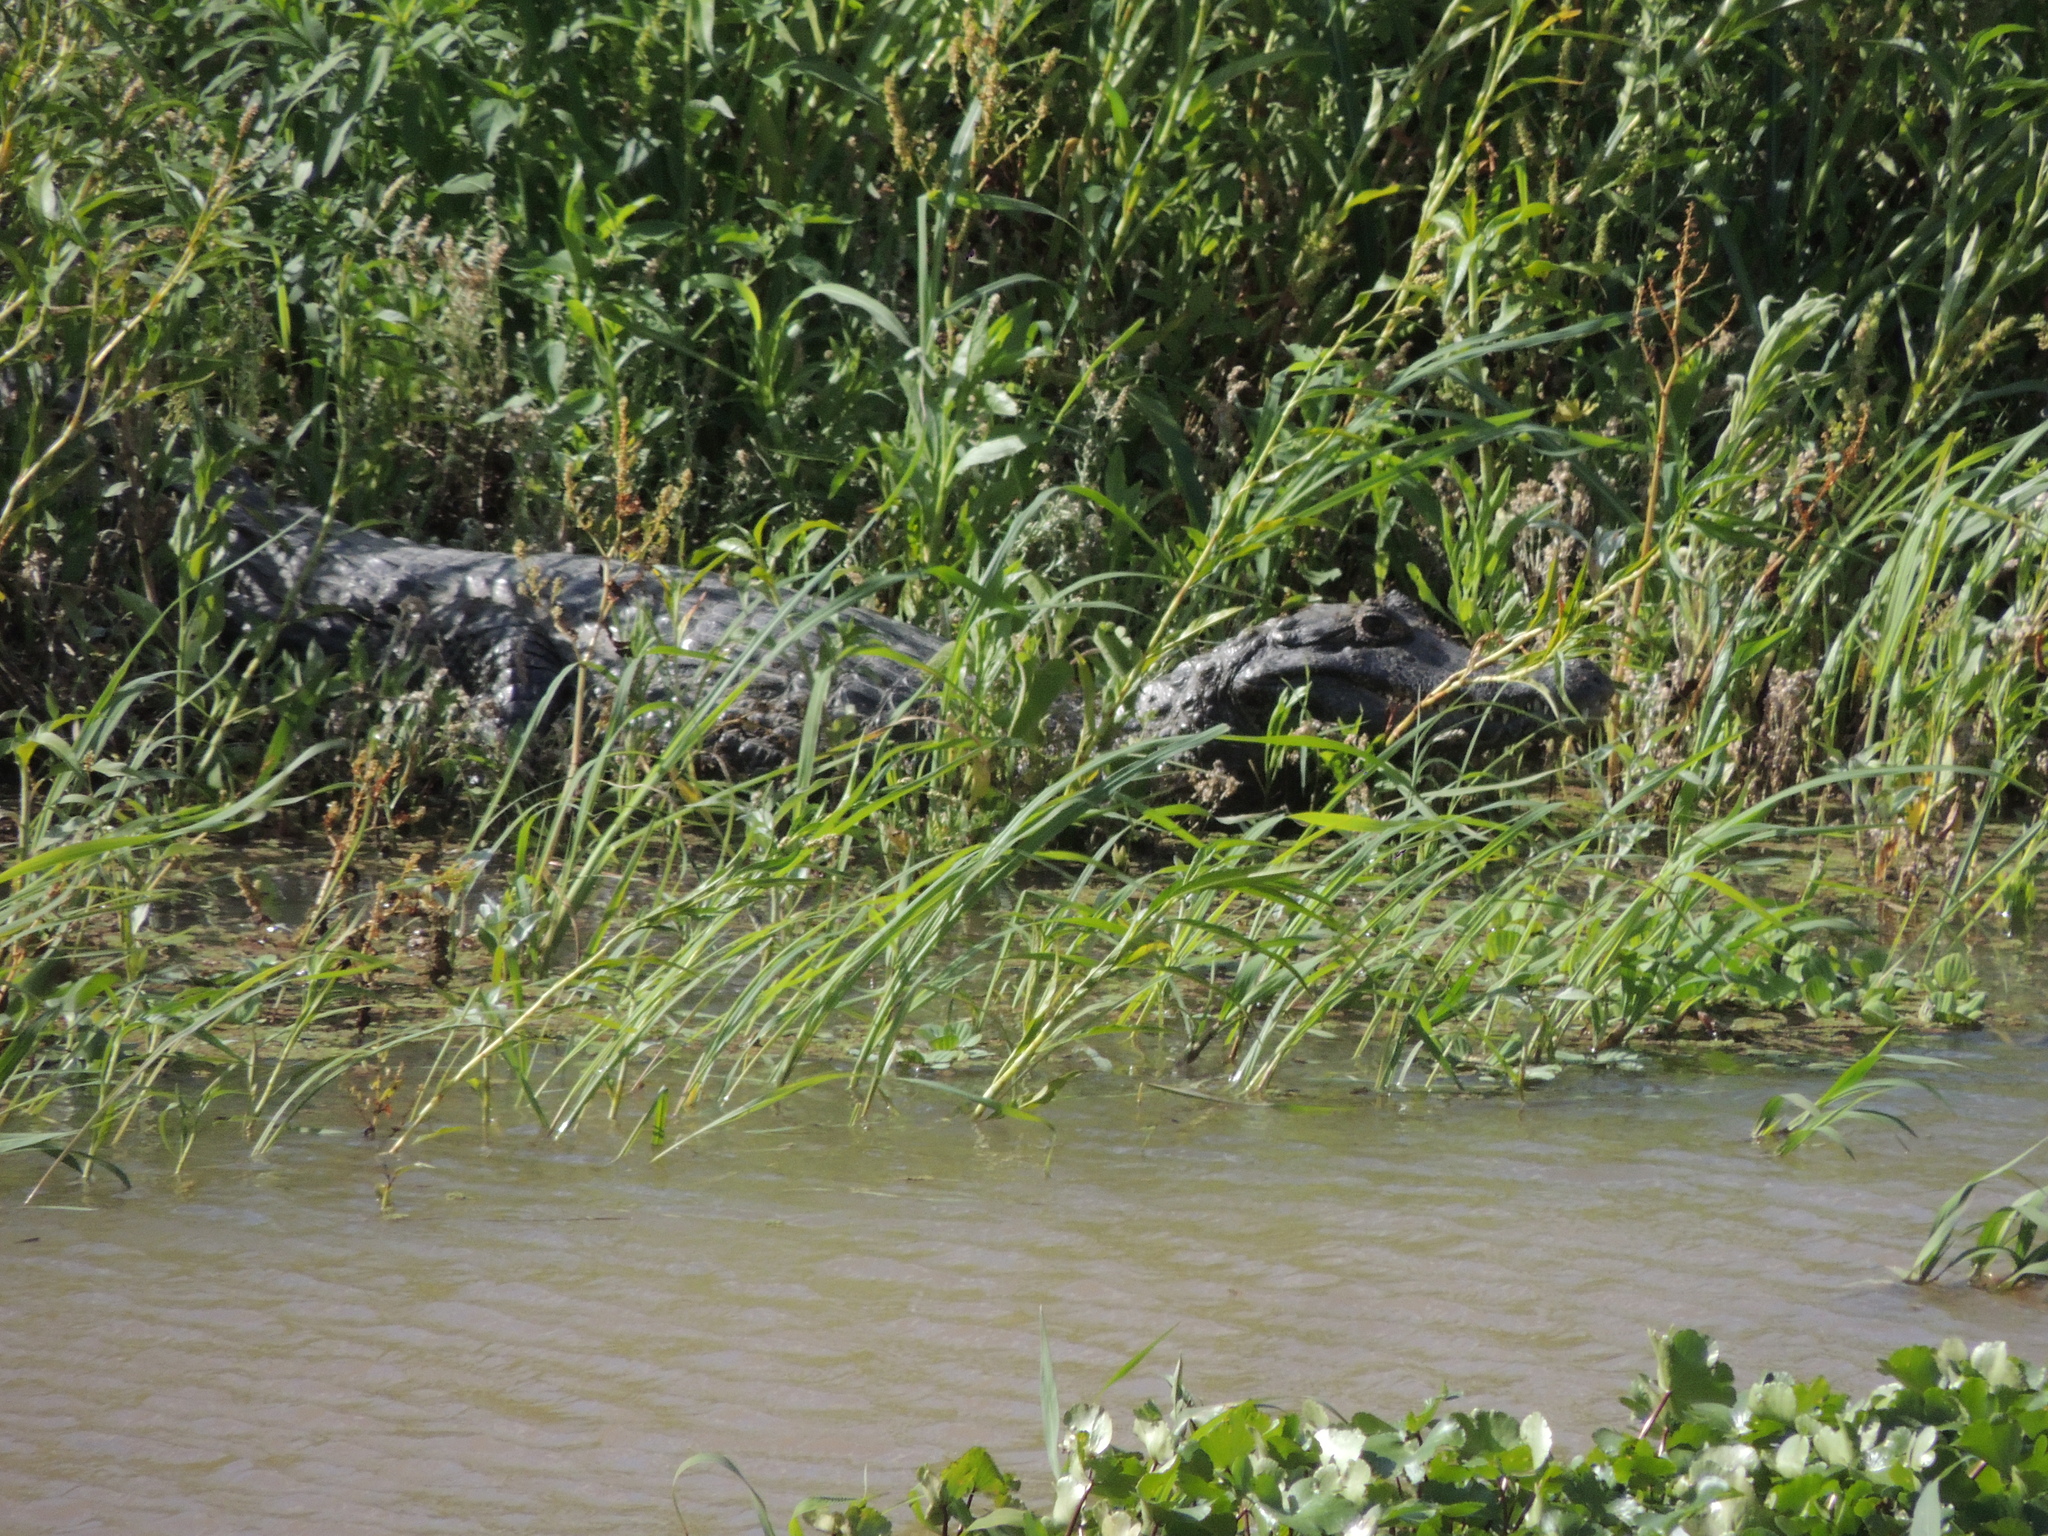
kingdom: Animalia
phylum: Chordata
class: Crocodylia
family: Alligatoridae
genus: Caiman
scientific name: Caiman yacare
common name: Yacare caiman
